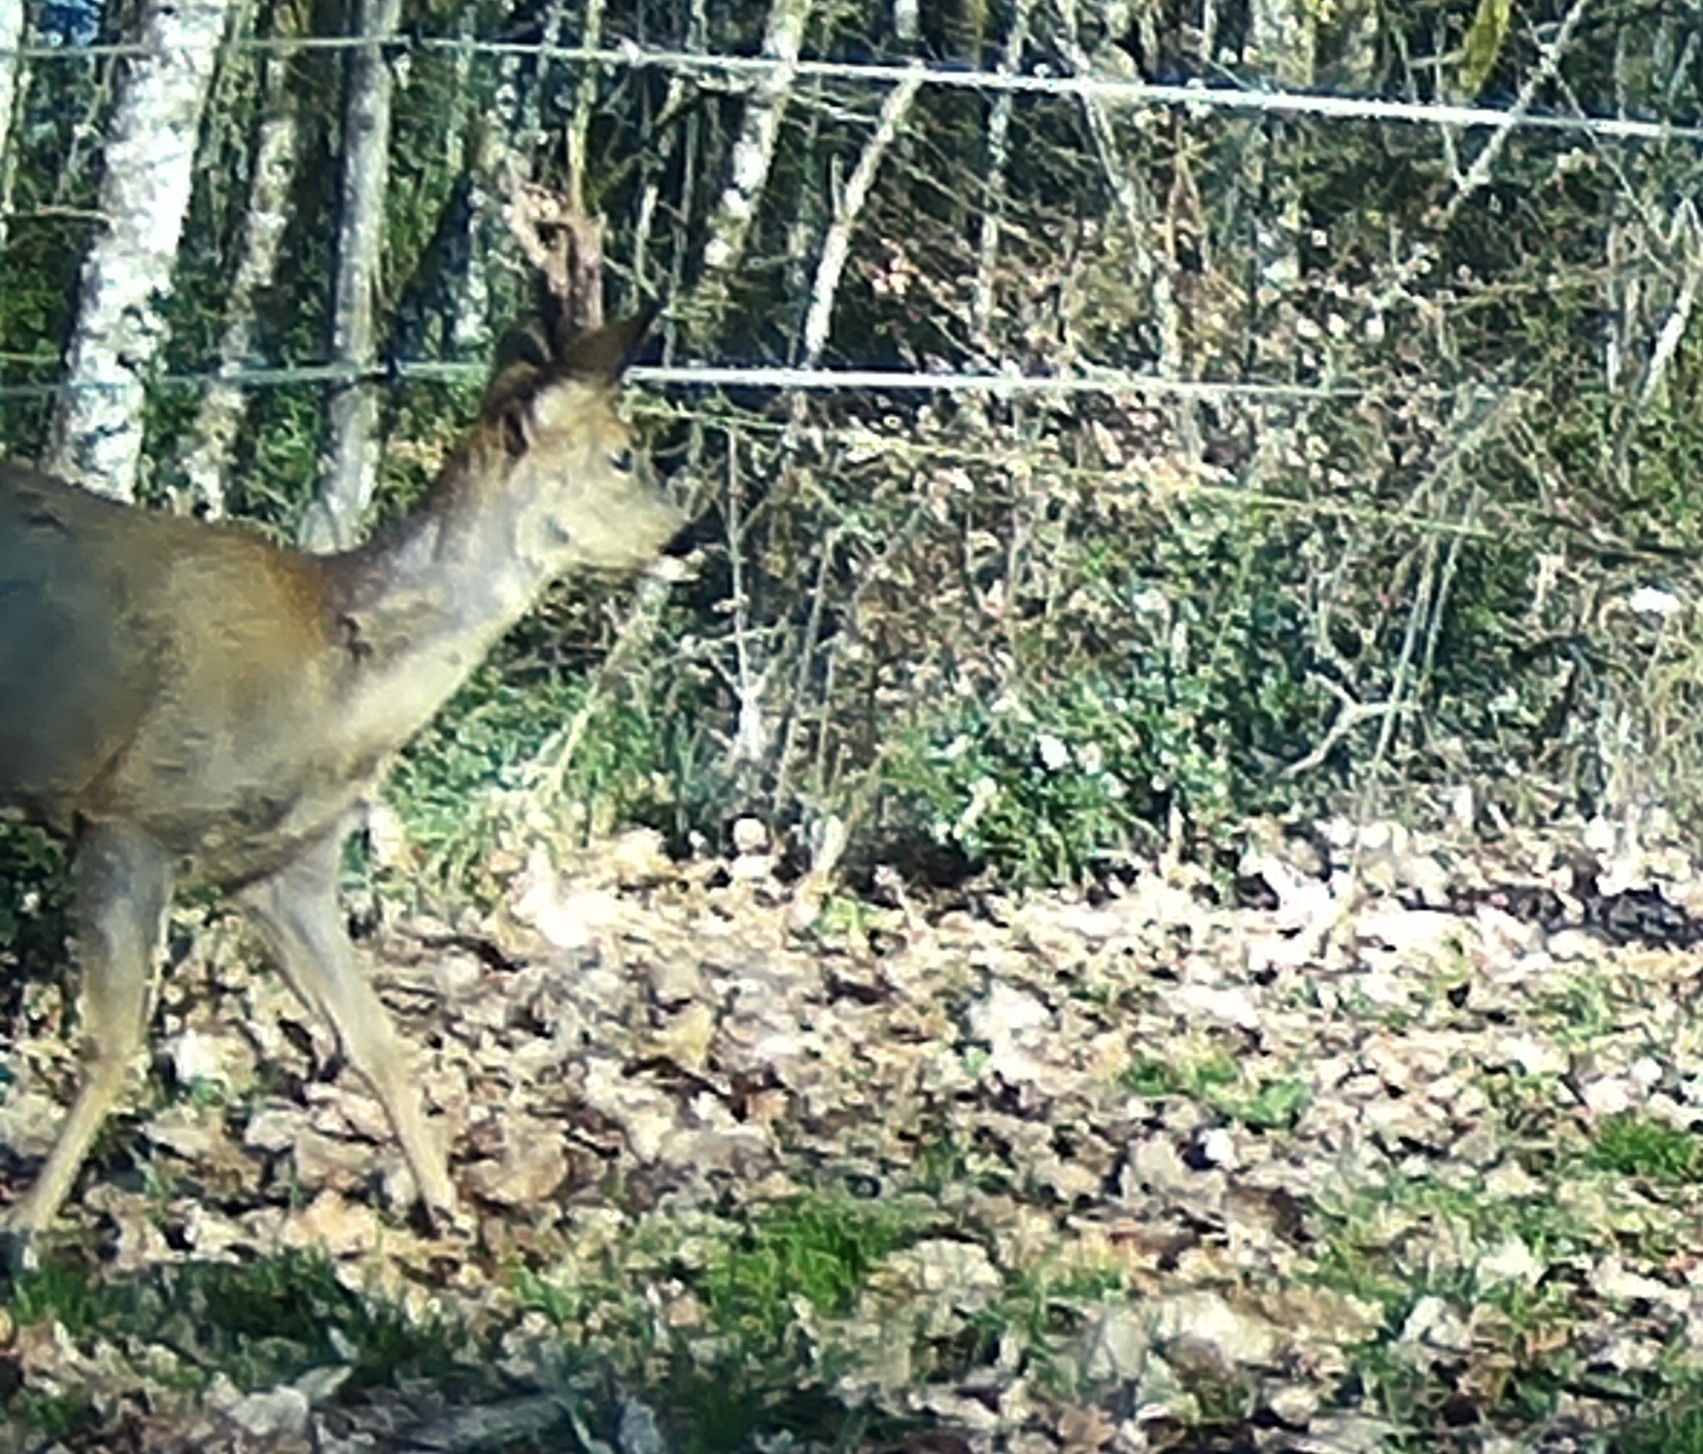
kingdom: Animalia
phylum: Chordata
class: Mammalia
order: Artiodactyla
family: Cervidae
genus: Capreolus
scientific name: Capreolus capreolus
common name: Western roe deer
